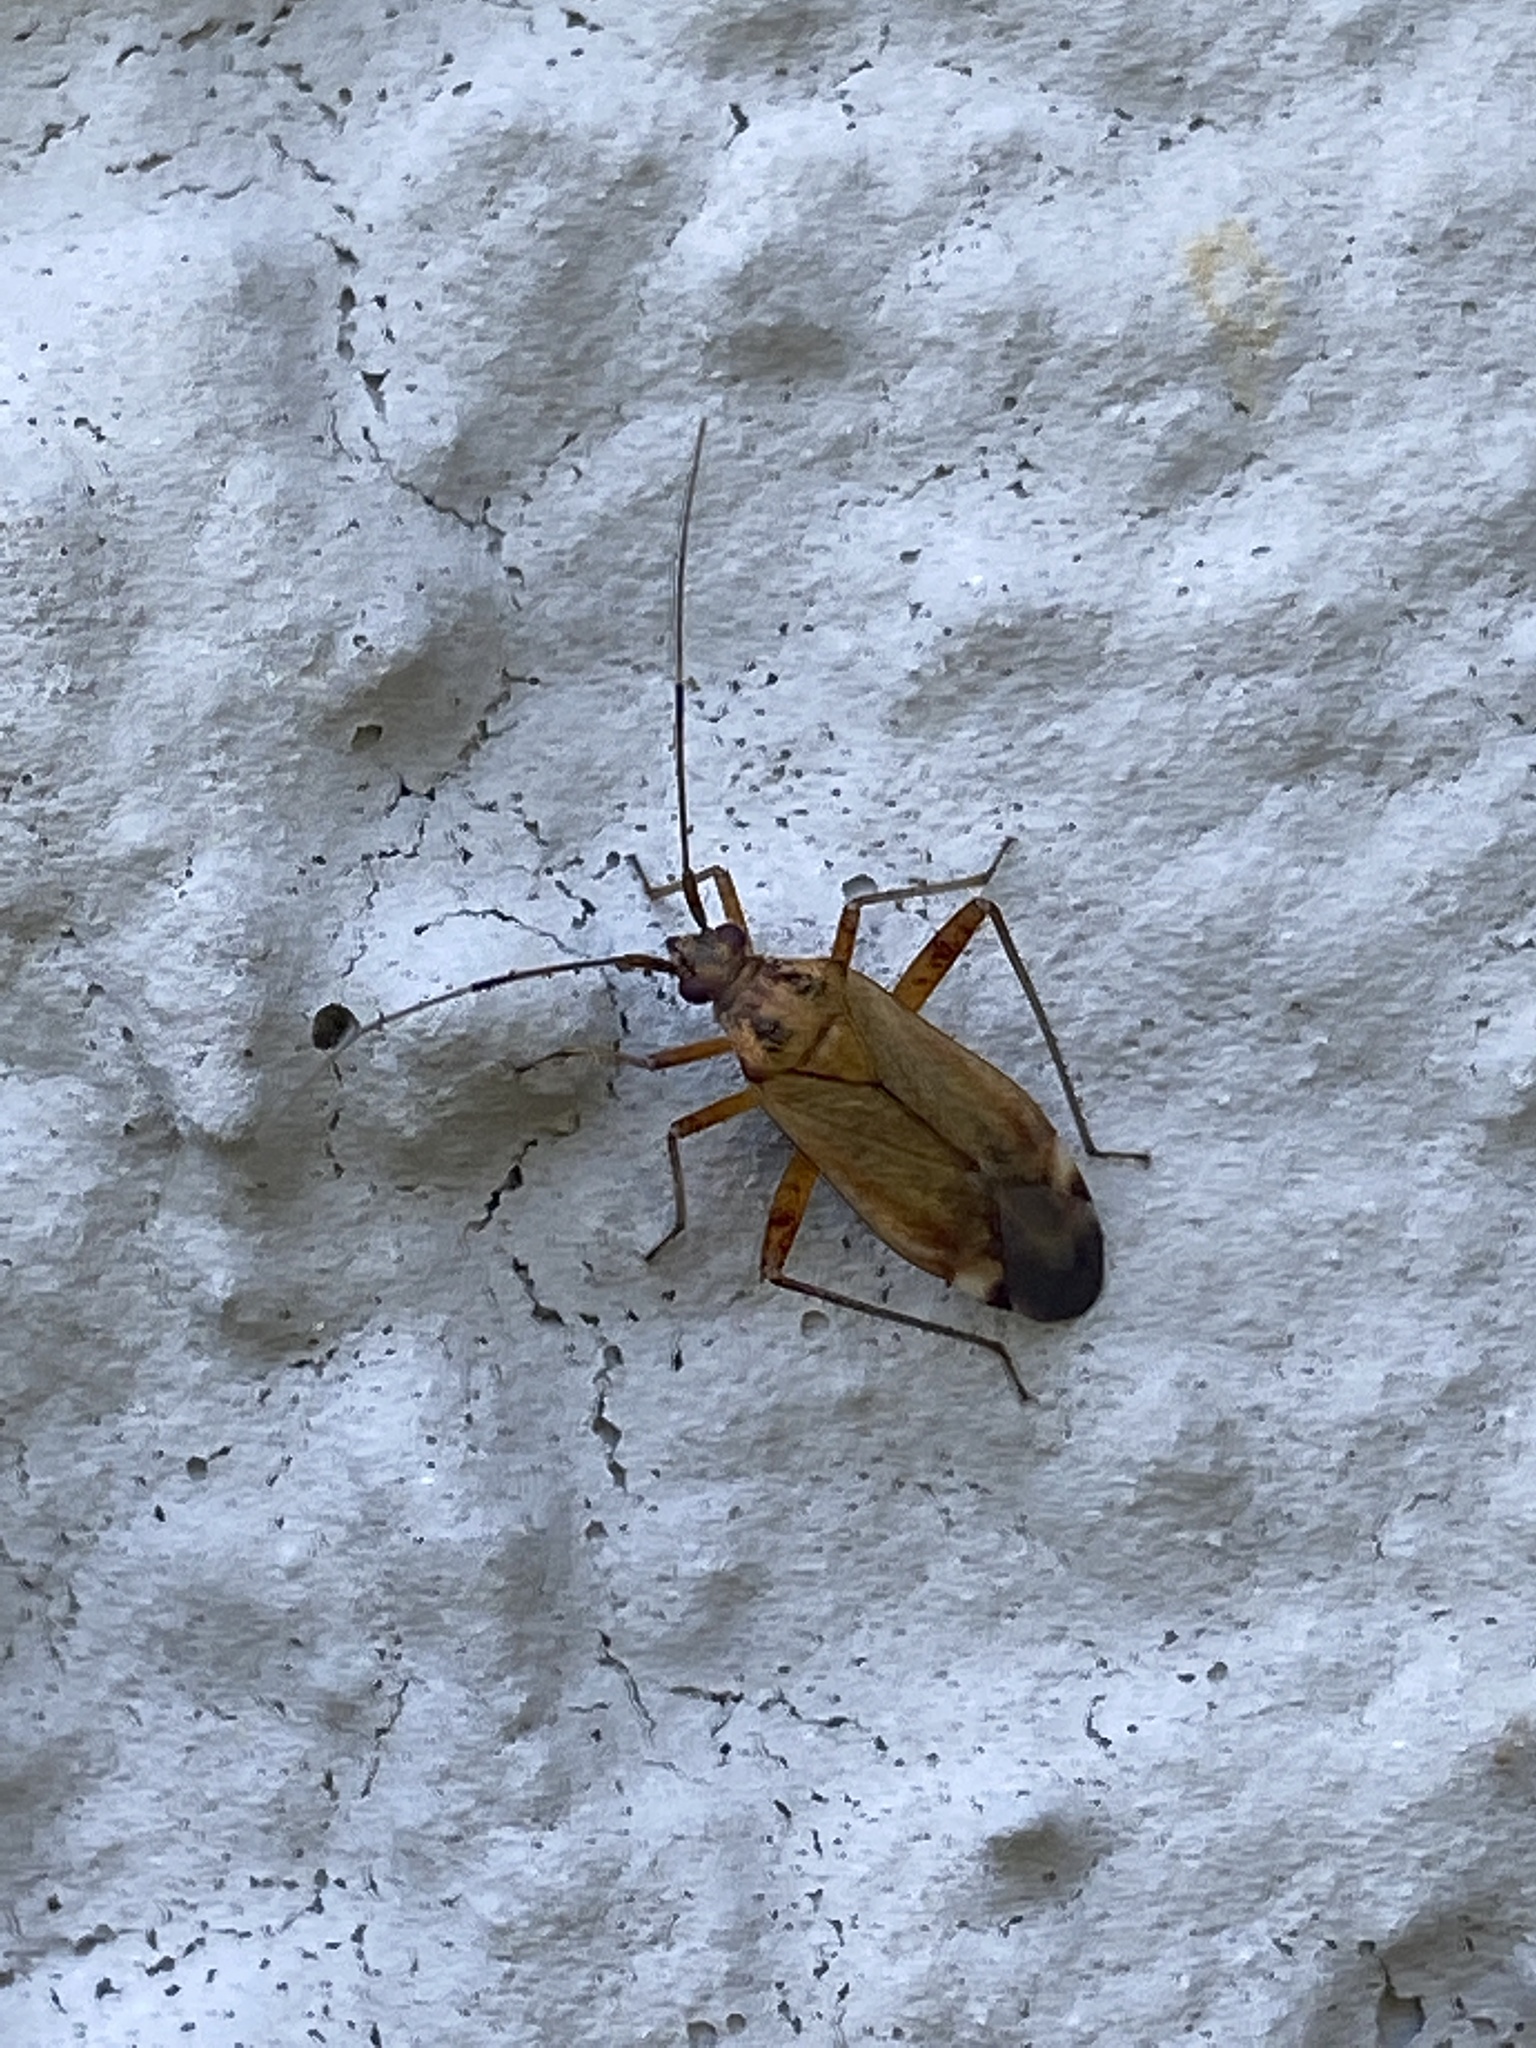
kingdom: Animalia
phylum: Arthropoda
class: Insecta
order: Hemiptera
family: Miridae
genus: Closterotomus
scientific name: Closterotomus fulvomaculatus
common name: Spotted plant bug
